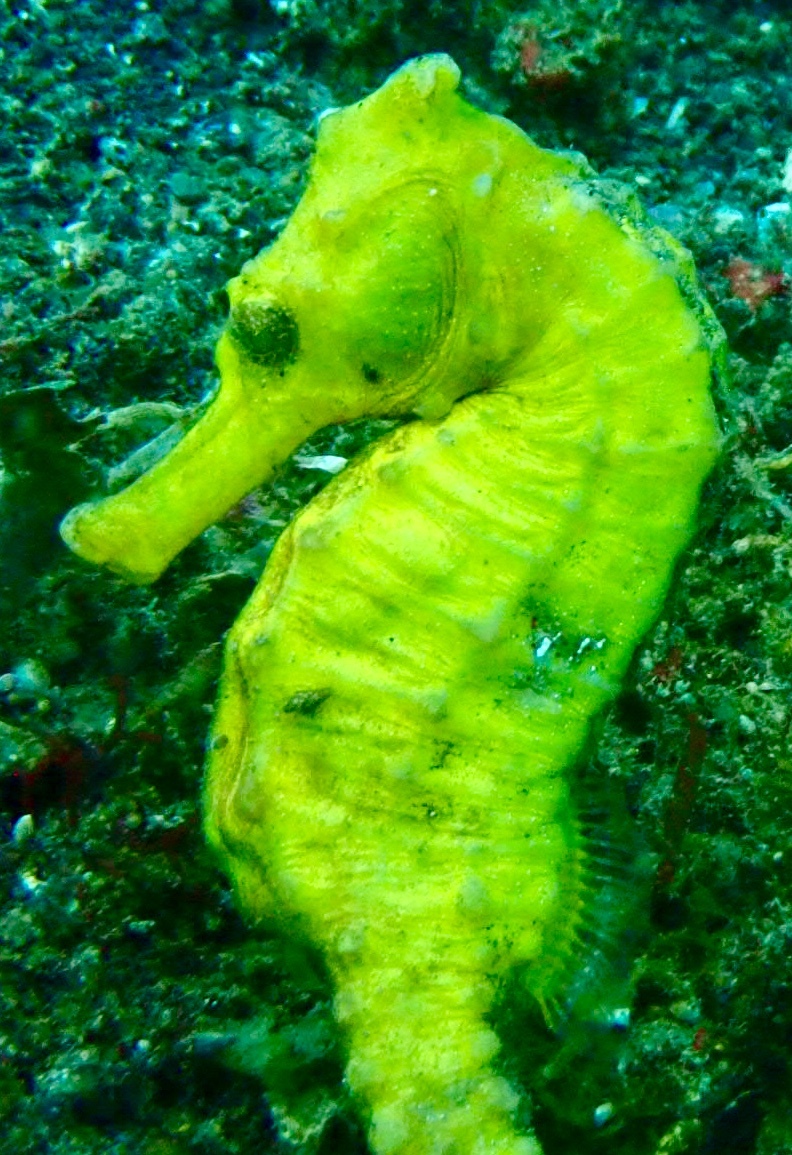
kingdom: Animalia
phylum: Chordata
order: Syngnathiformes
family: Syngnathidae
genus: Hippocampus
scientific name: Hippocampus kuda
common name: Spotted seahorse
